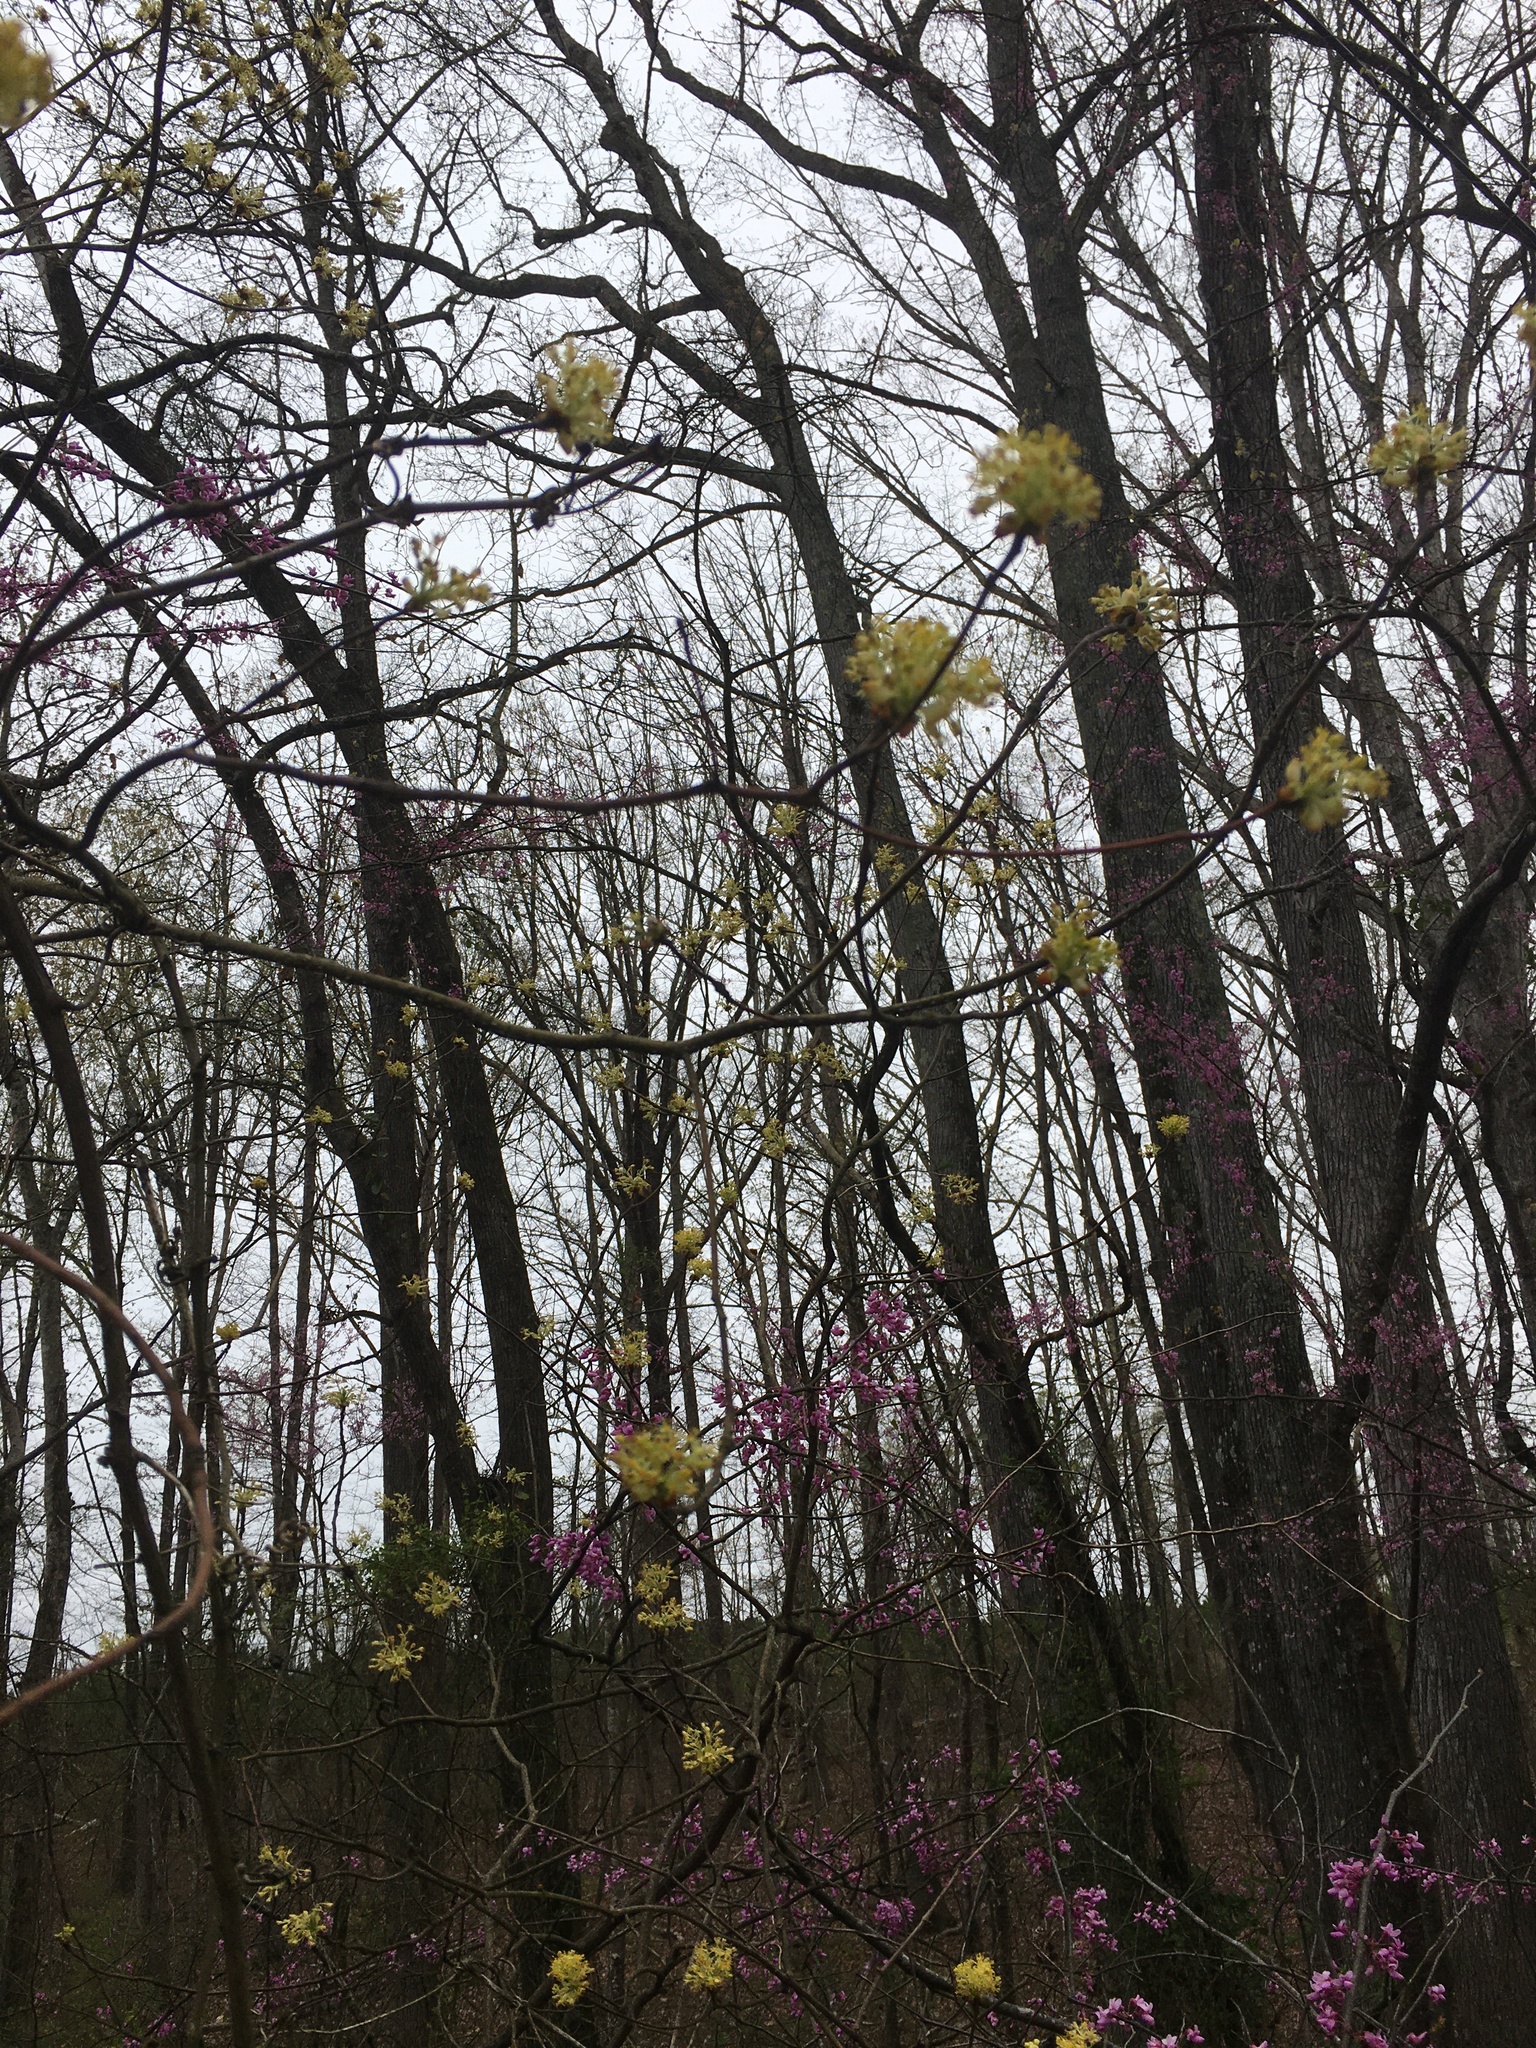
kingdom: Plantae
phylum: Tracheophyta
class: Magnoliopsida
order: Laurales
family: Lauraceae
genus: Sassafras
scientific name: Sassafras albidum
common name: Sassafras
